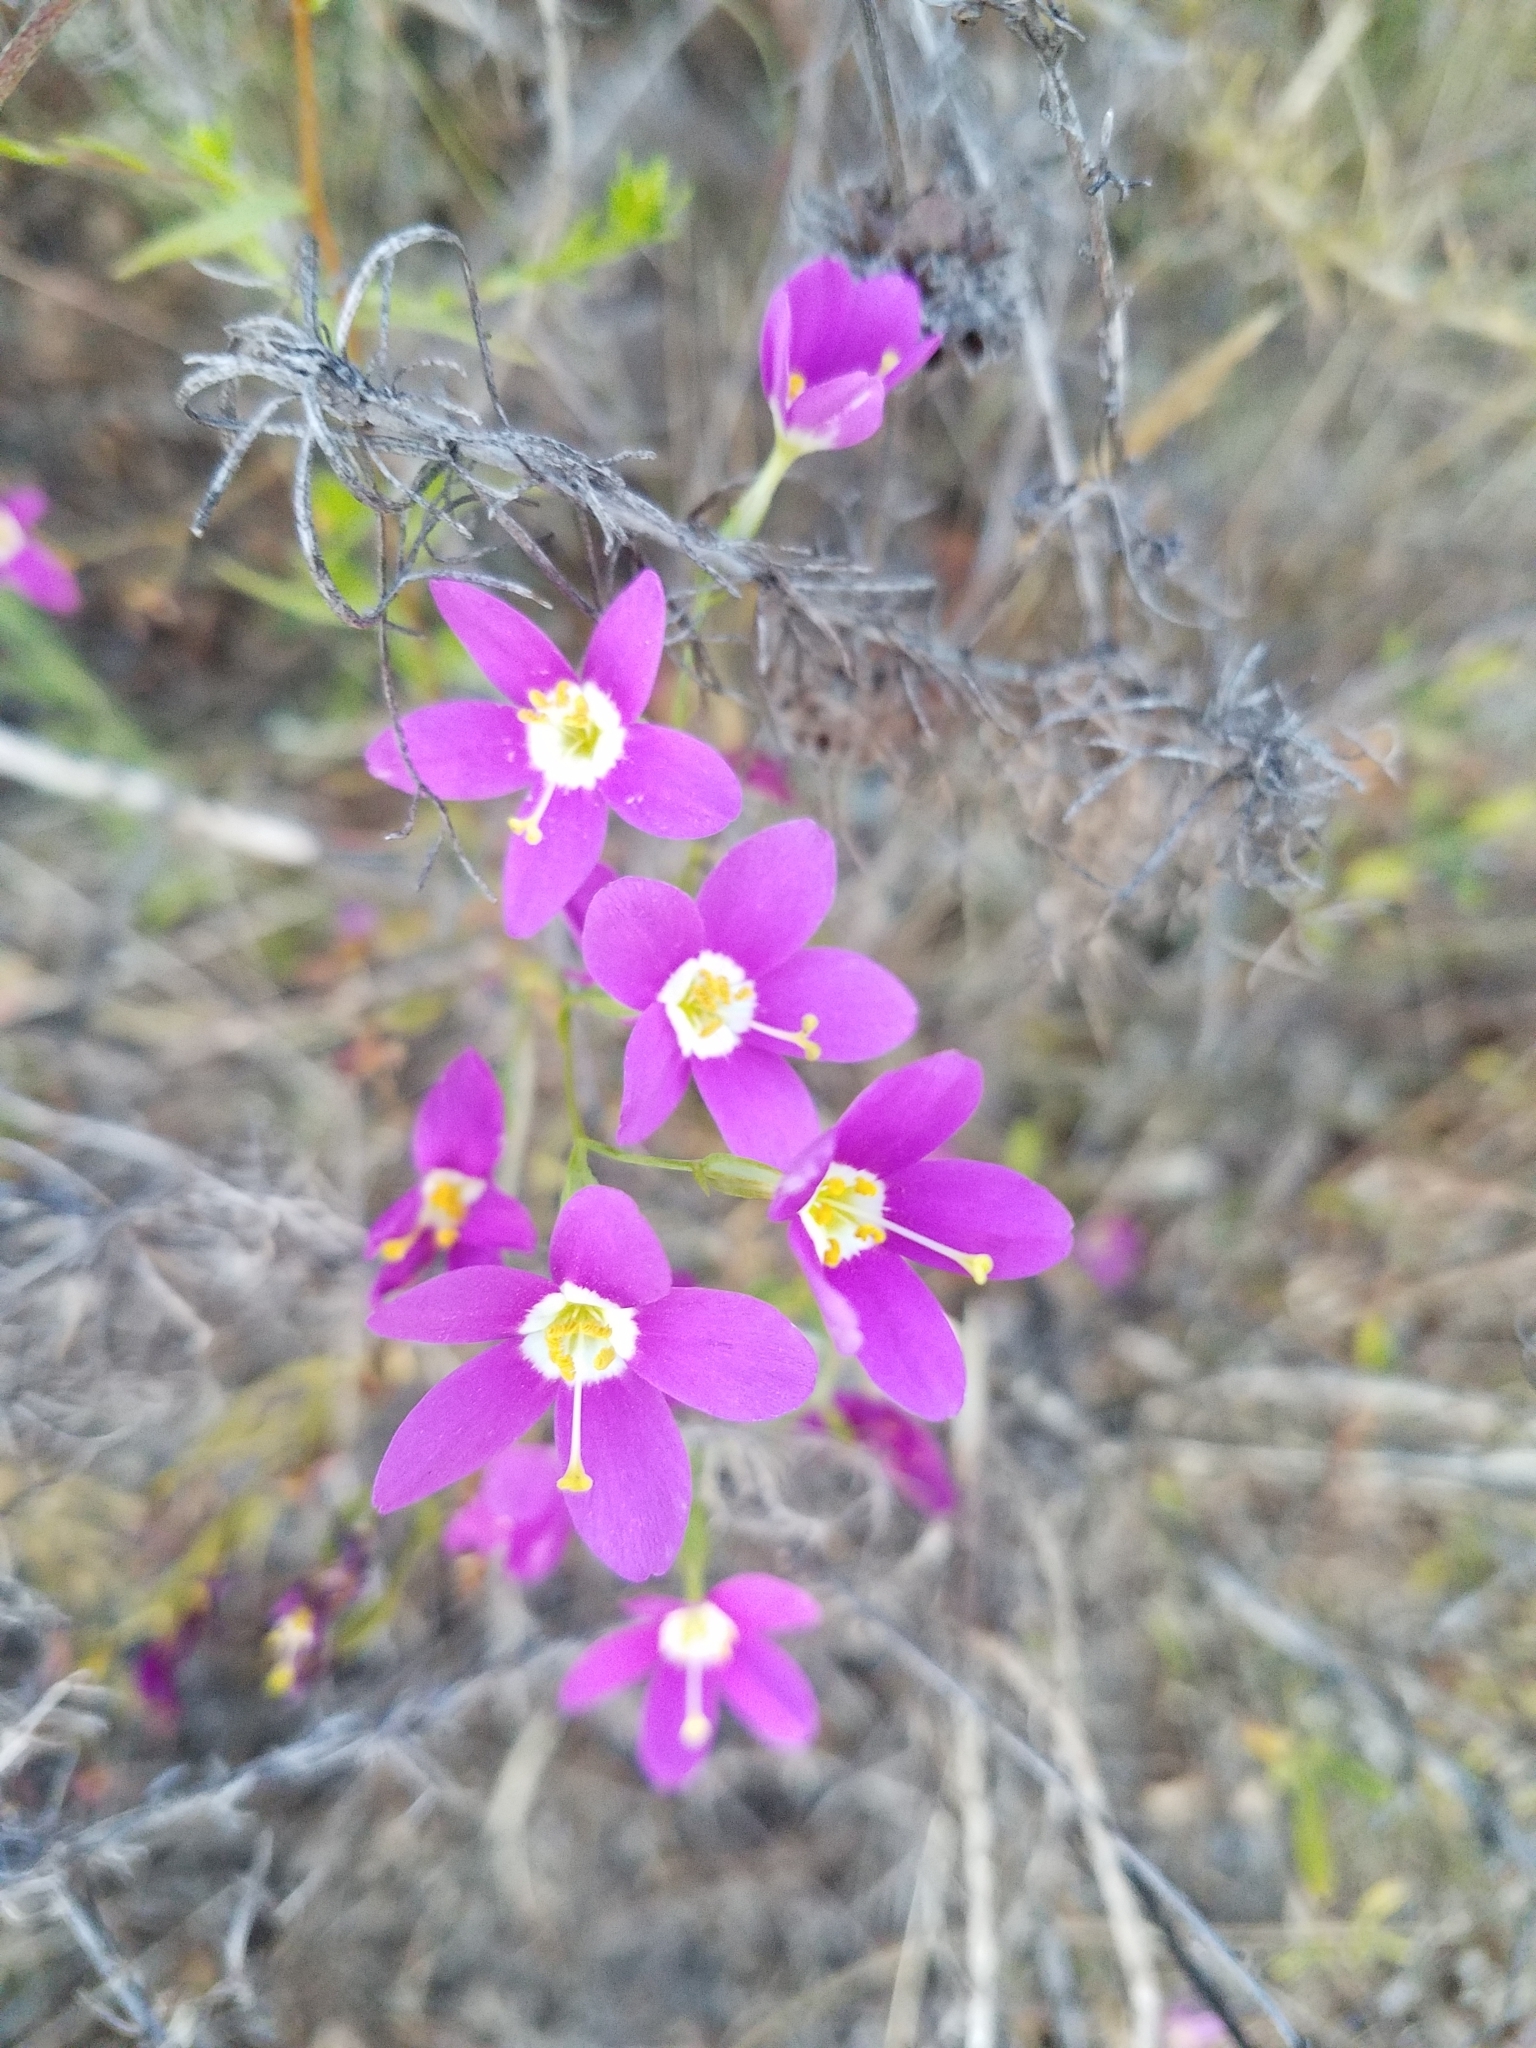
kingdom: Plantae
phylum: Tracheophyta
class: Magnoliopsida
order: Gentianales
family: Gentianaceae
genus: Zeltnera
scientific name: Zeltnera venusta
